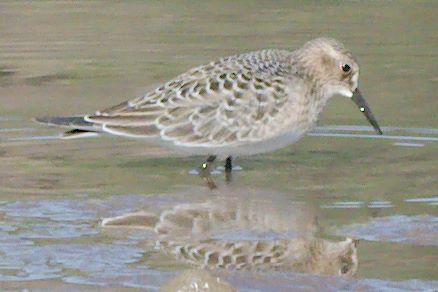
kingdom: Animalia
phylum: Chordata
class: Aves
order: Charadriiformes
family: Scolopacidae
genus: Calidris
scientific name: Calidris bairdii
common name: Baird's sandpiper
